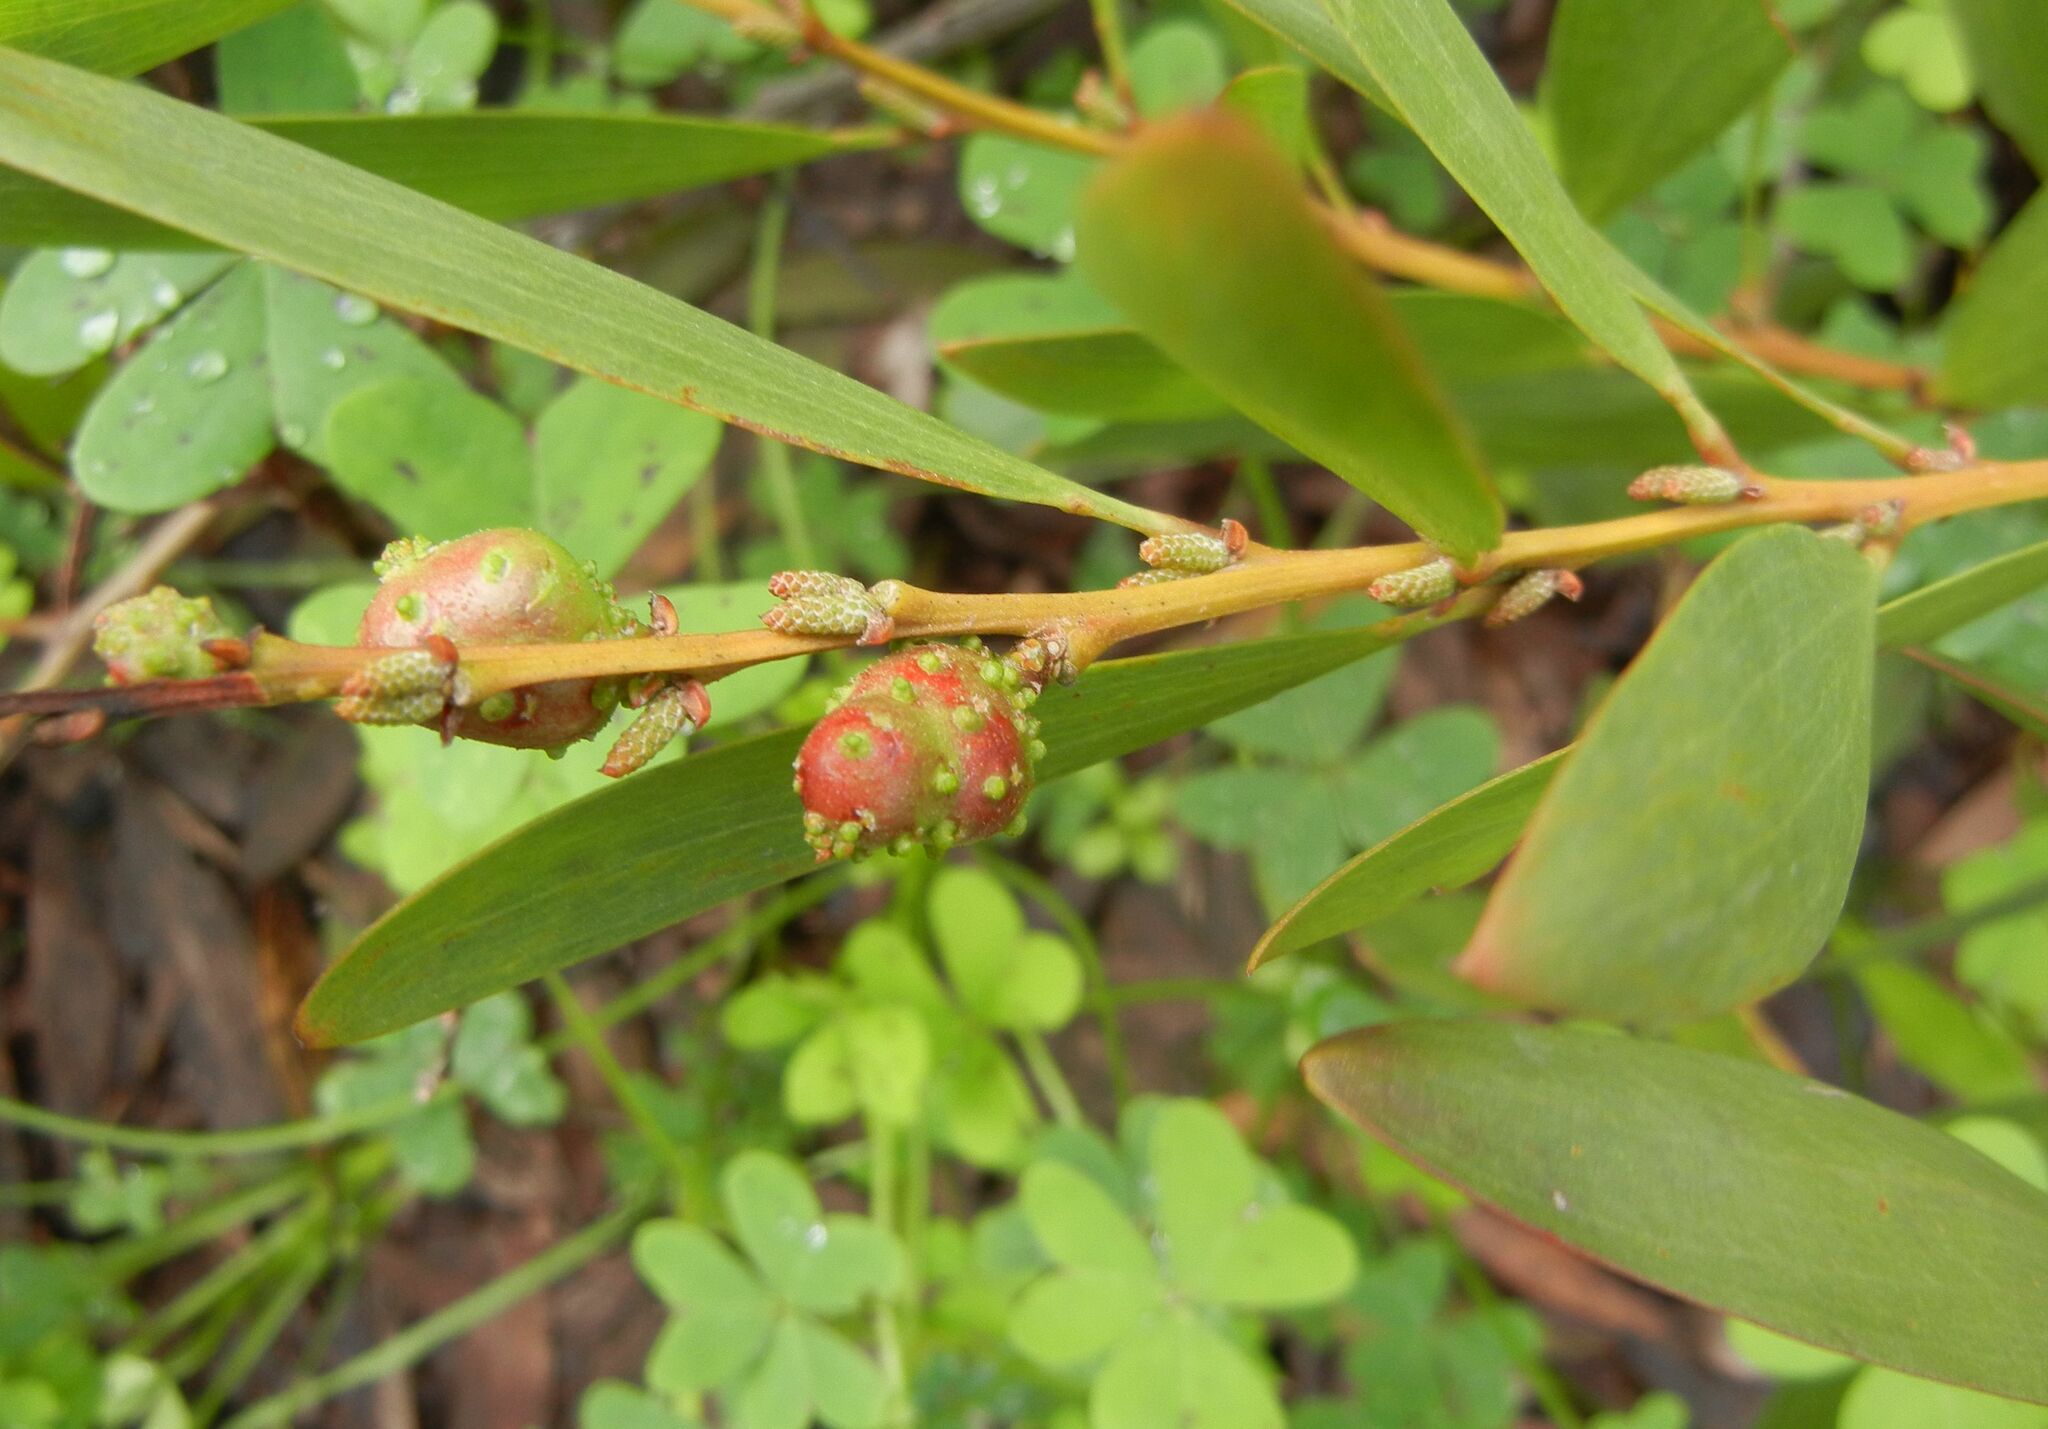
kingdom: Plantae
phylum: Tracheophyta
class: Magnoliopsida
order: Fabales
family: Fabaceae
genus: Acacia
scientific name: Acacia longifolia
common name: Sydney golden wattle
